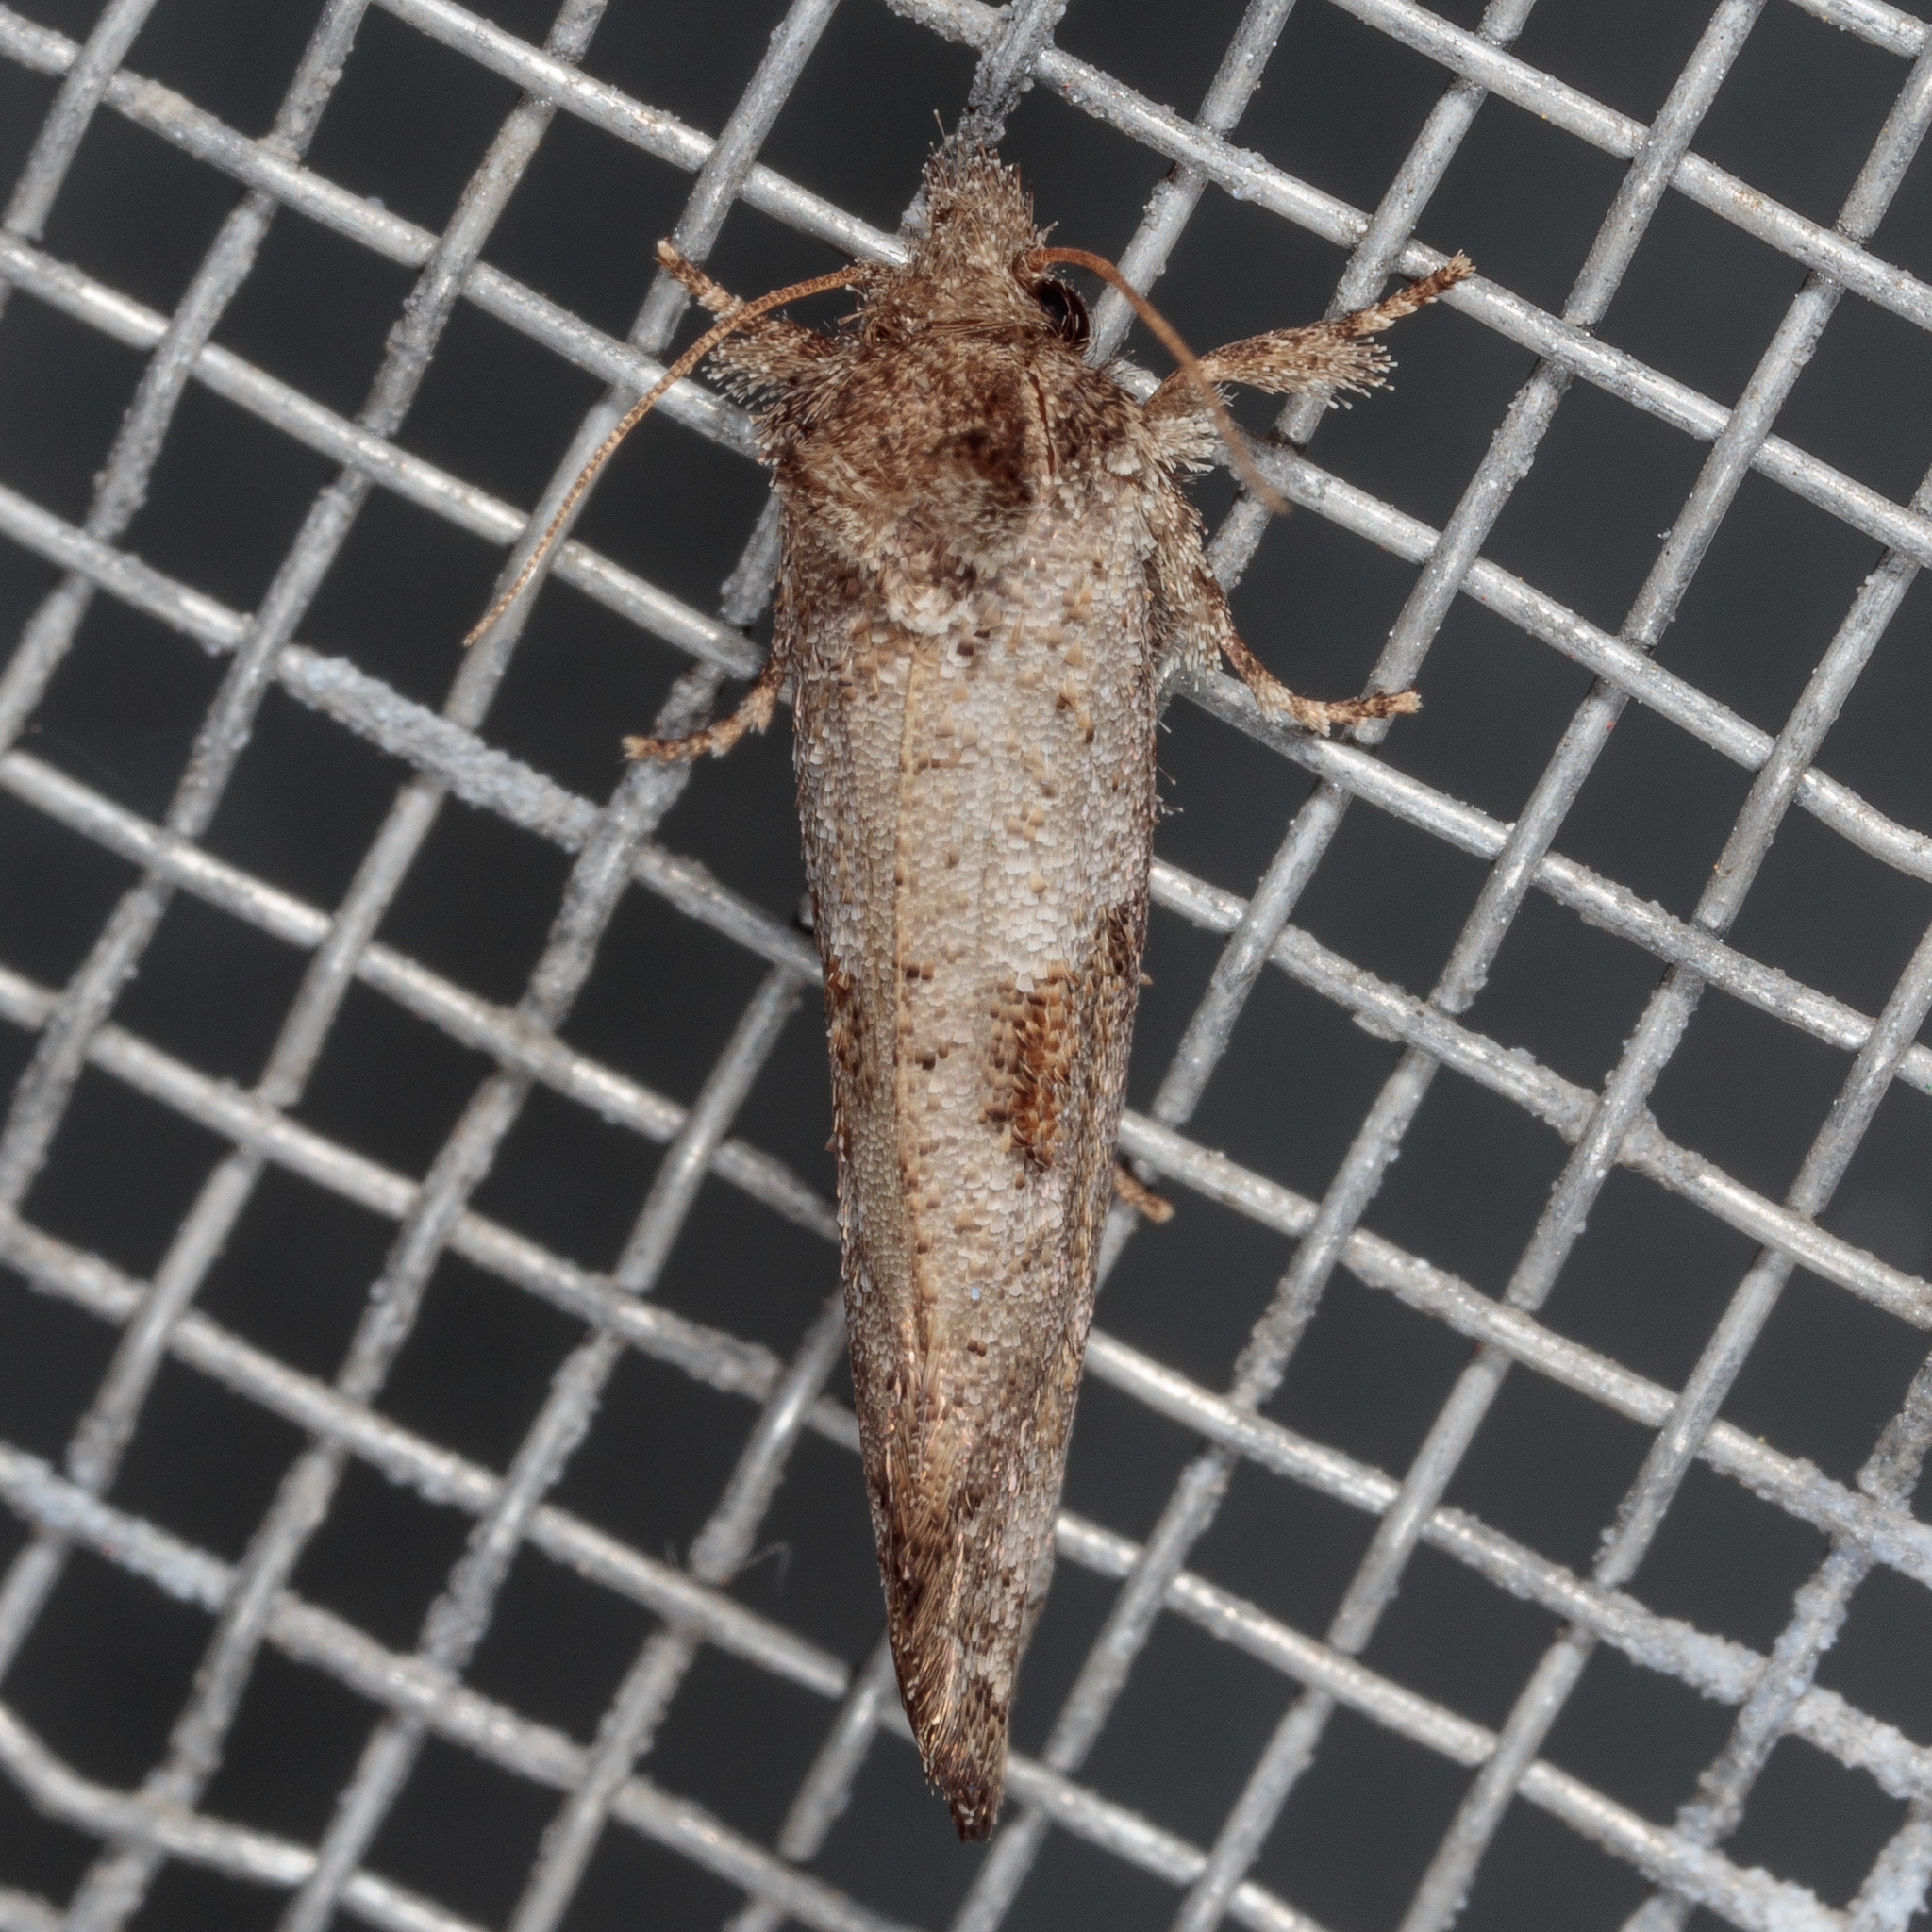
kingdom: Animalia
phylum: Arthropoda
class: Insecta
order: Lepidoptera
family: Tineidae
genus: Acrolophus
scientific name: Acrolophus piger
